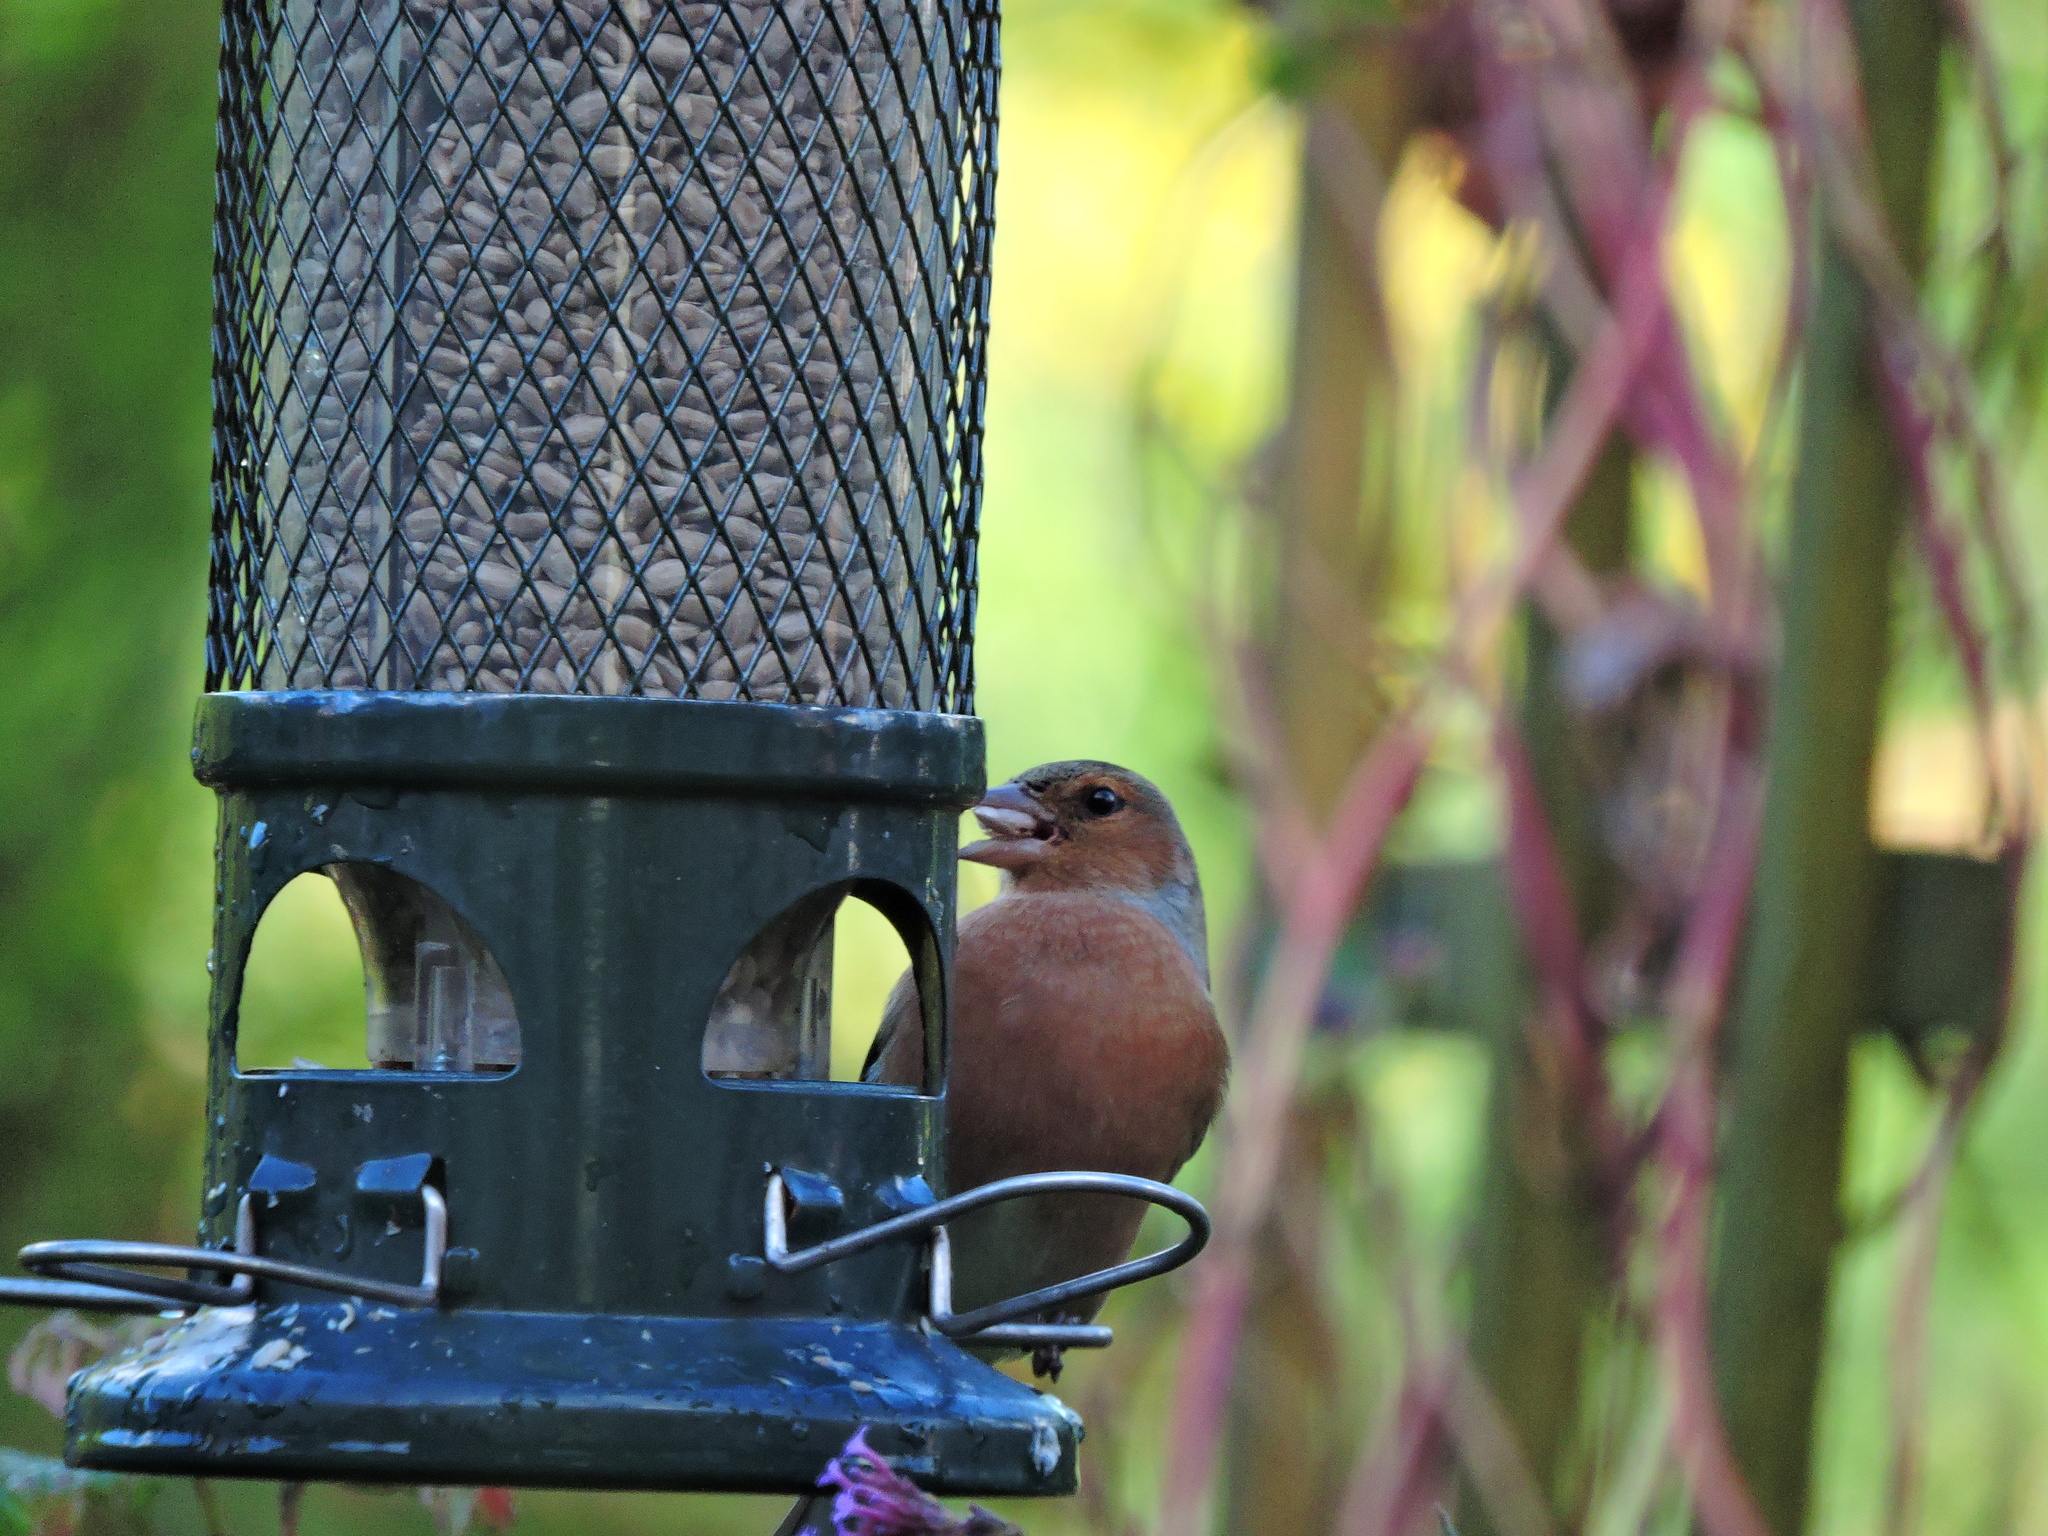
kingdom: Animalia
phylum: Chordata
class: Aves
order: Passeriformes
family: Fringillidae
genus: Fringilla
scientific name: Fringilla coelebs
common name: Common chaffinch
